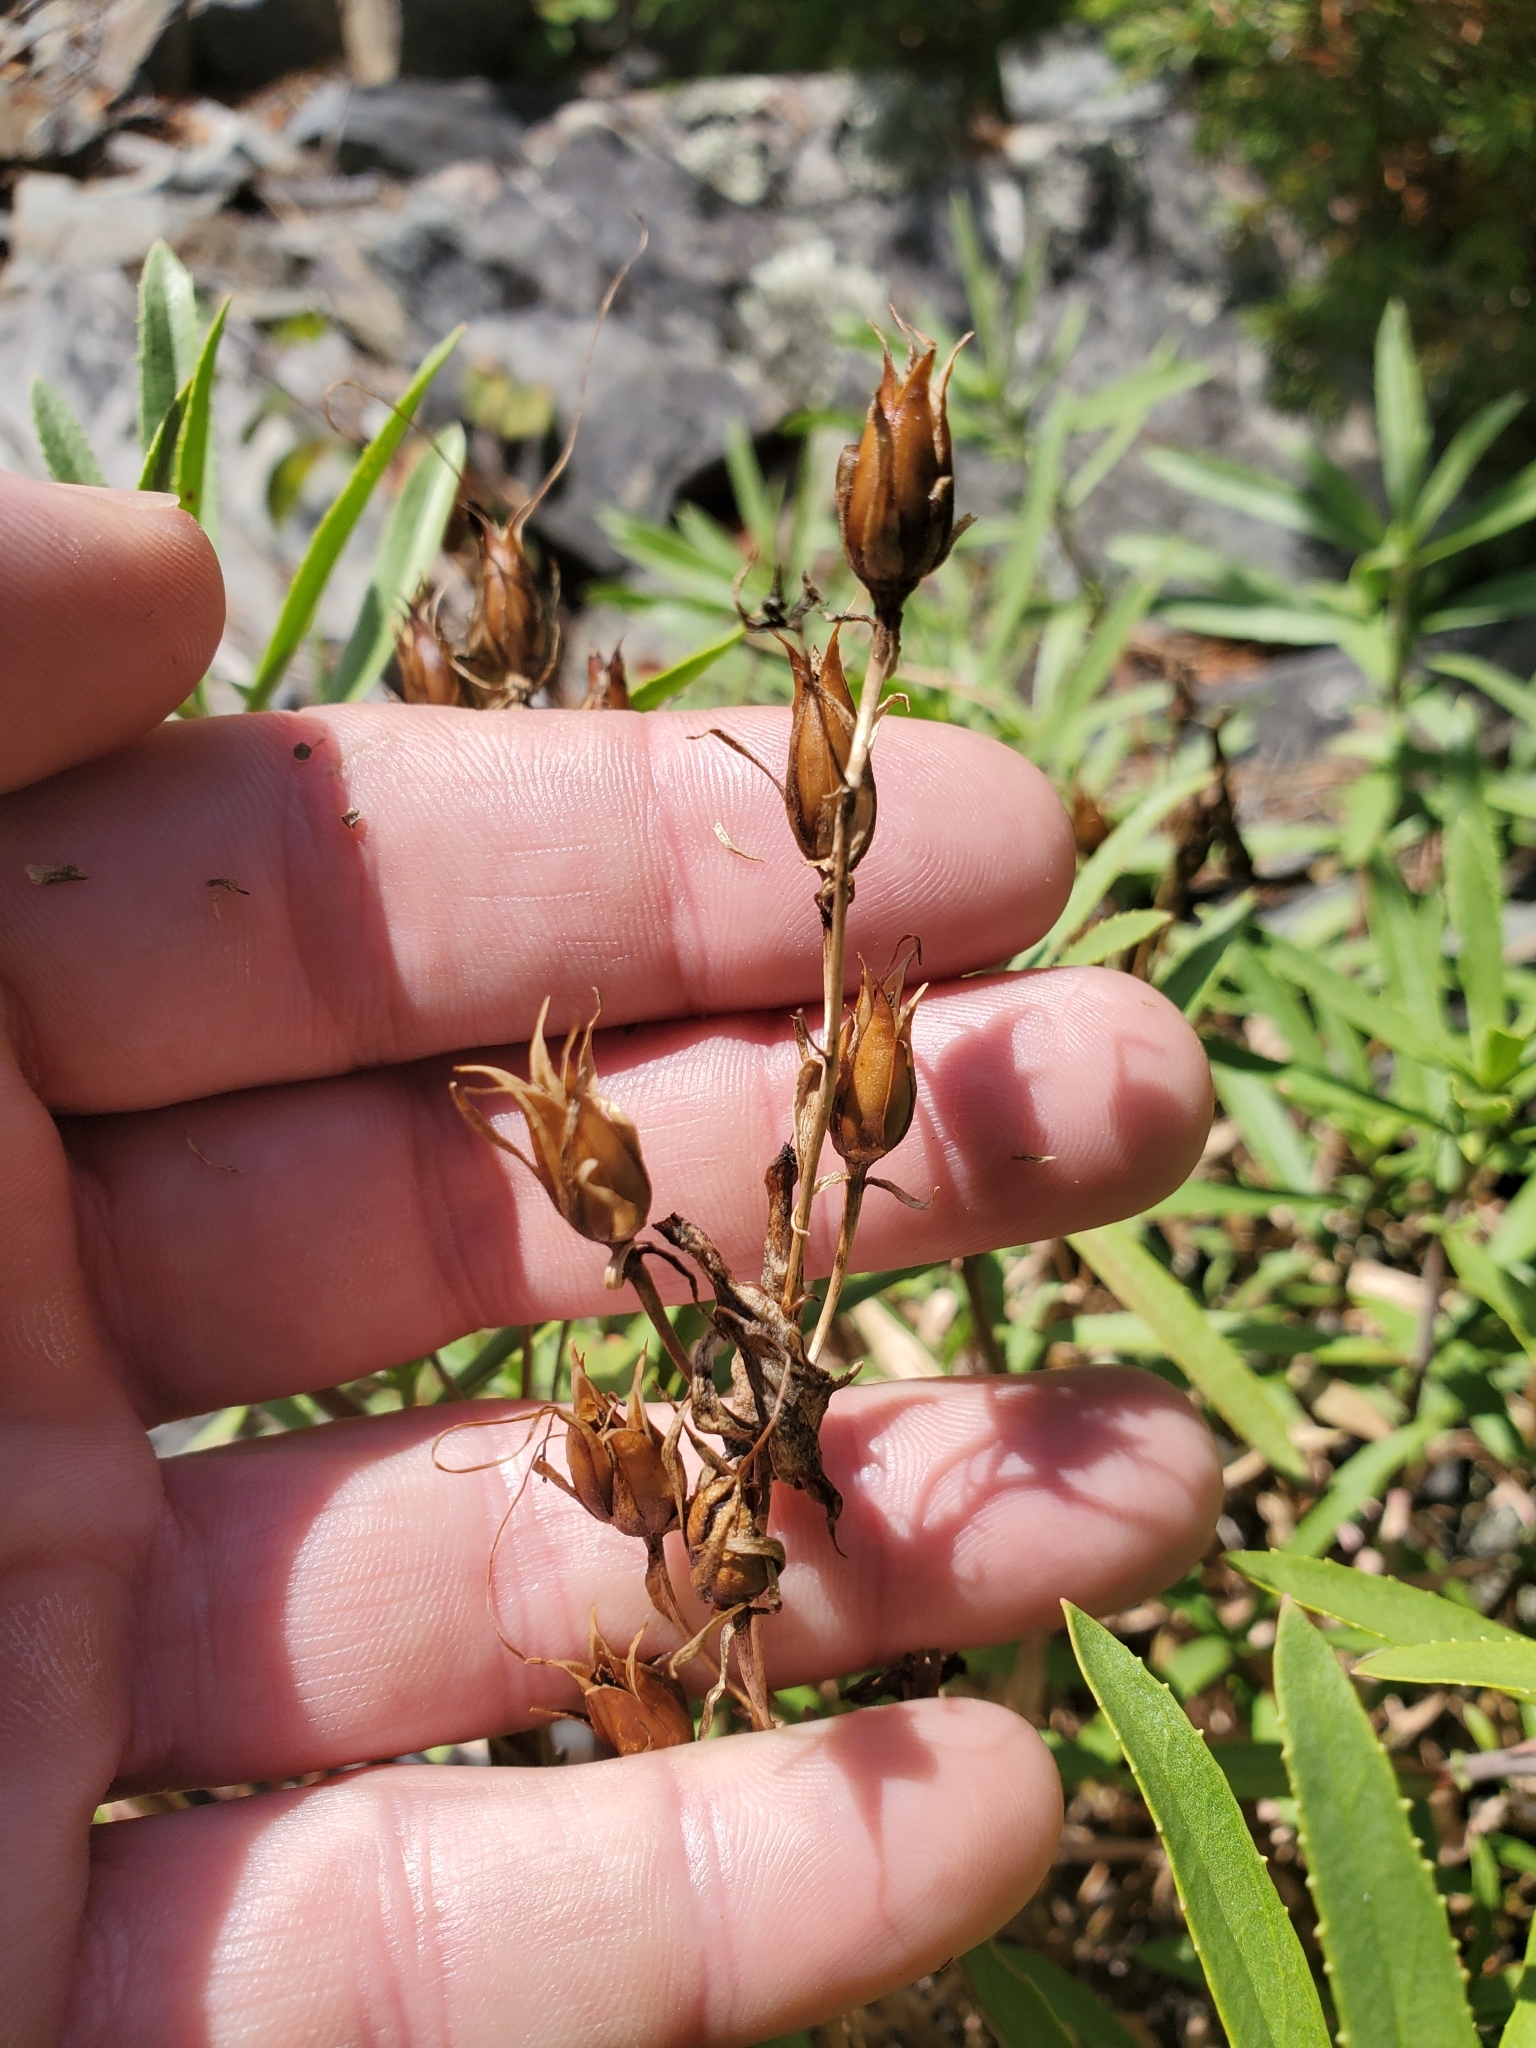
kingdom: Plantae
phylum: Tracheophyta
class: Magnoliopsida
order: Lamiales
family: Plantaginaceae
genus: Penstemon
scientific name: Penstemon fruticosus
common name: Bush penstemon
